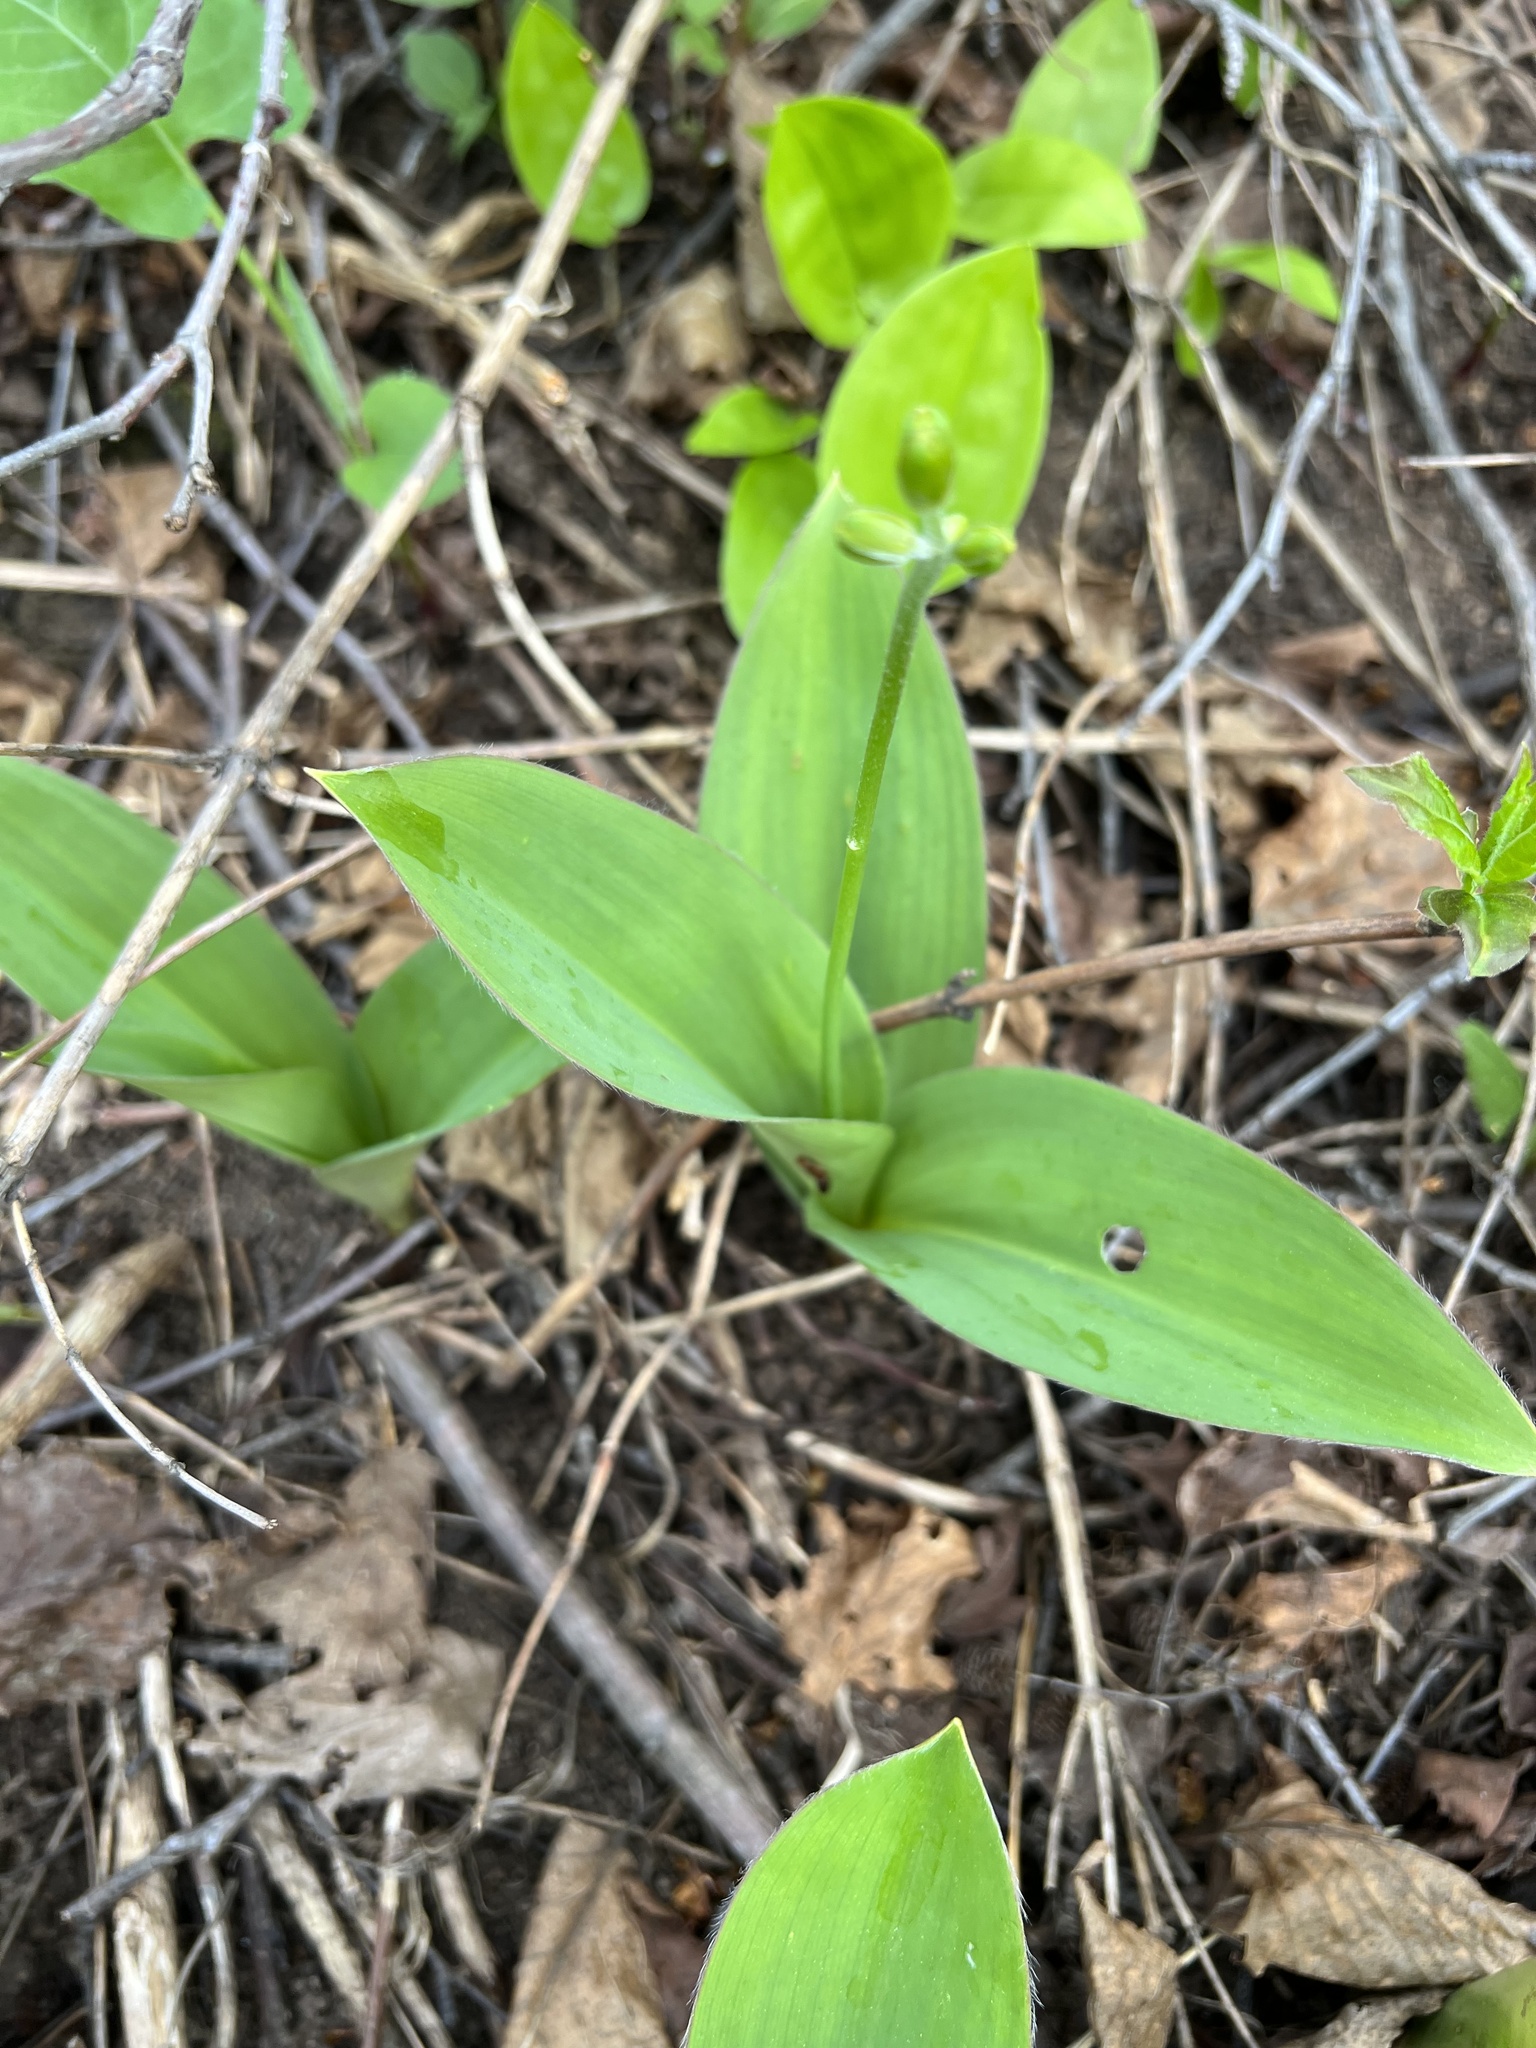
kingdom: Plantae
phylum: Tracheophyta
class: Liliopsida
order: Liliales
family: Liliaceae
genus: Clintonia
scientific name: Clintonia borealis
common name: Yellow clintonia
